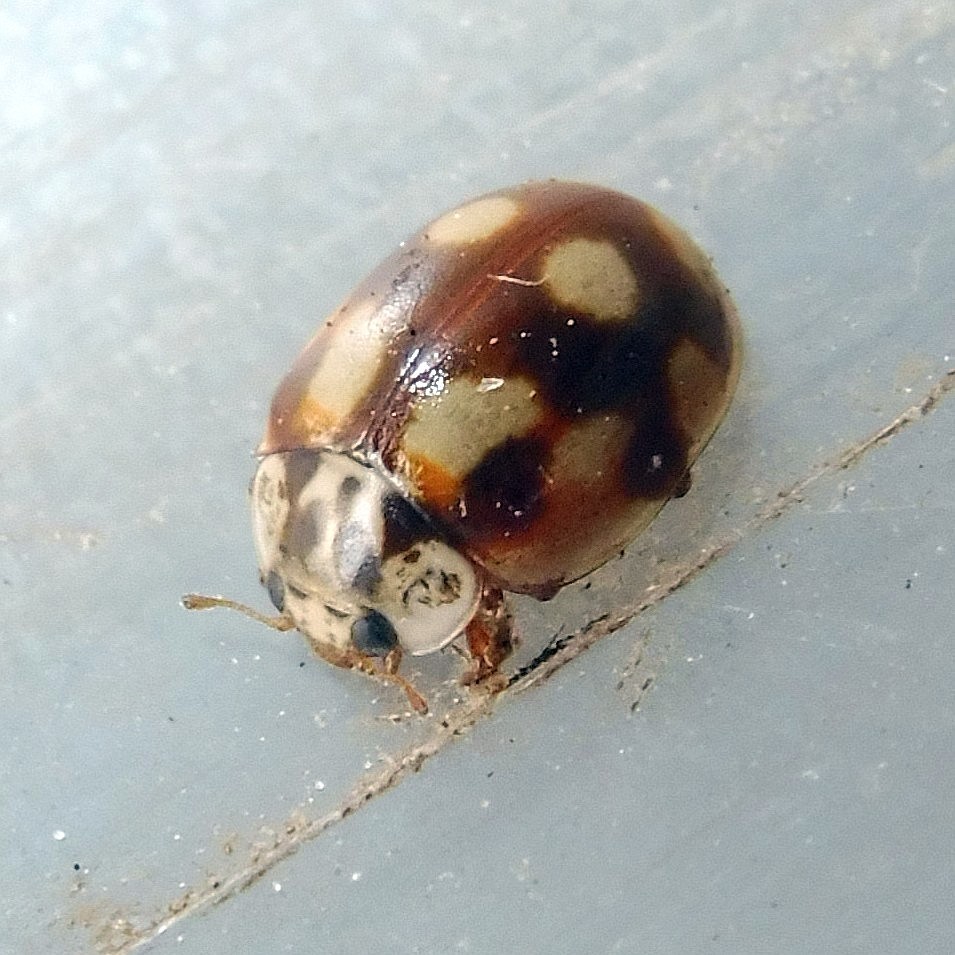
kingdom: Animalia
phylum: Arthropoda
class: Insecta
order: Coleoptera
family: Coccinellidae
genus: Adalia
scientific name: Adalia decempunctata
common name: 10-spot ladybird
